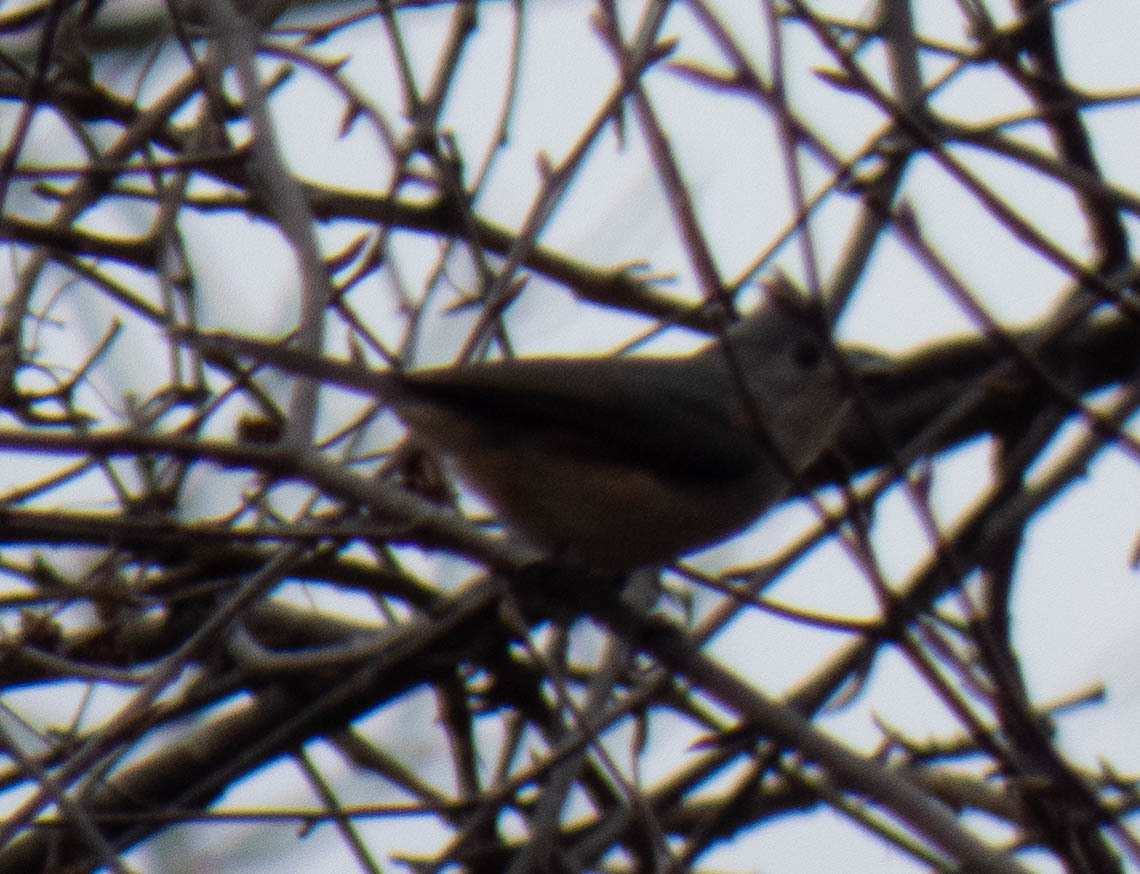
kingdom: Animalia
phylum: Chordata
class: Aves
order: Passeriformes
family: Paridae
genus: Baeolophus
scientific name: Baeolophus bicolor
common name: Tufted titmouse
